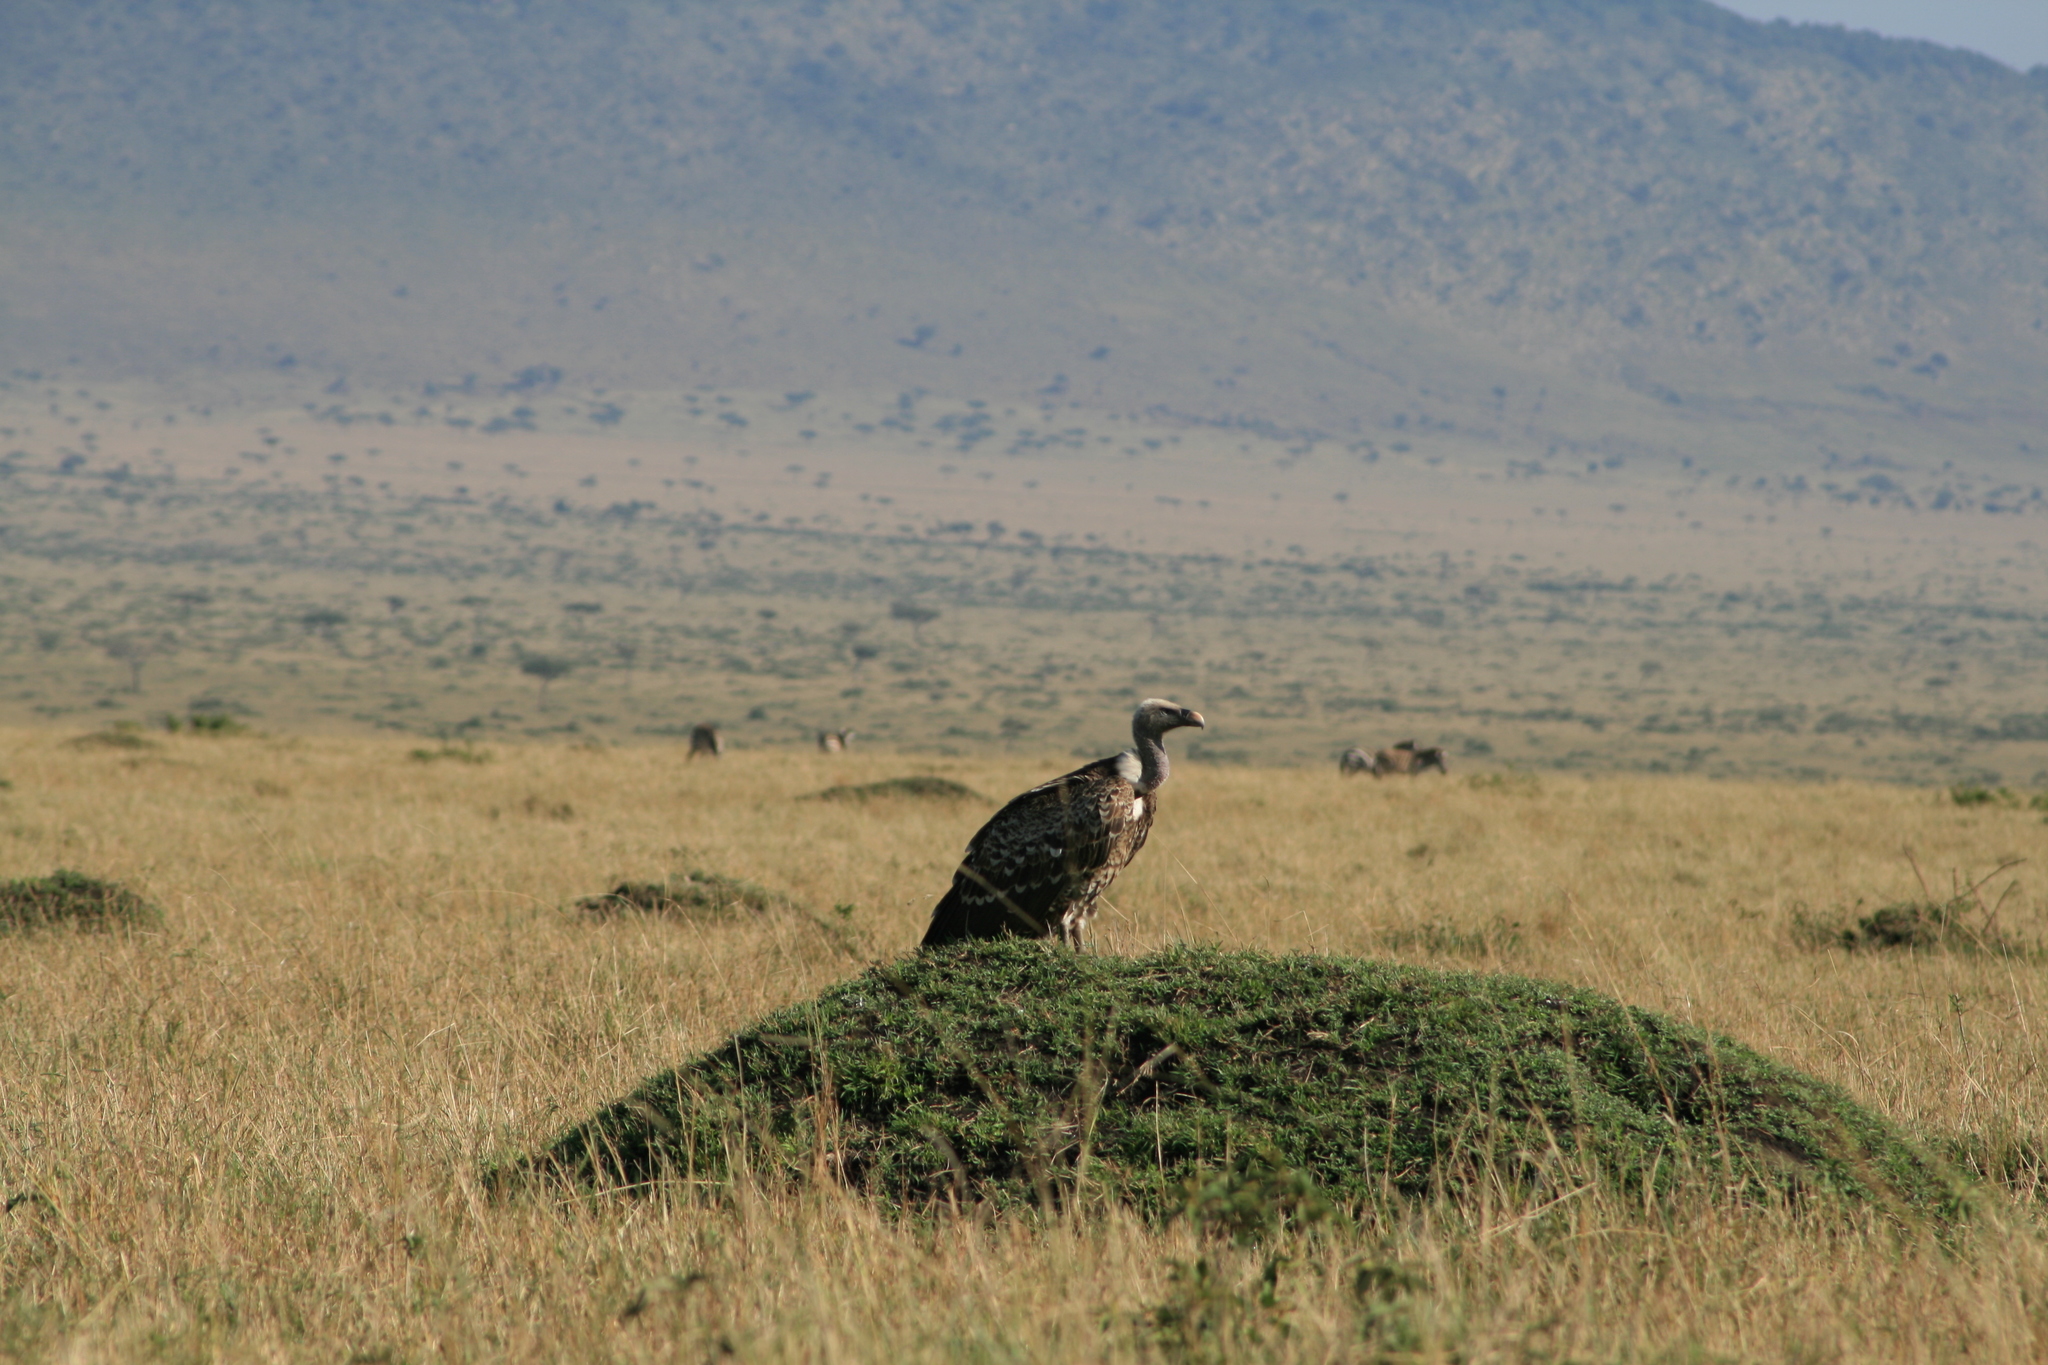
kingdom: Animalia
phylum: Chordata
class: Aves
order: Accipitriformes
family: Accipitridae
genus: Gyps
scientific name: Gyps rueppellii
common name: Rüppell's vulture
